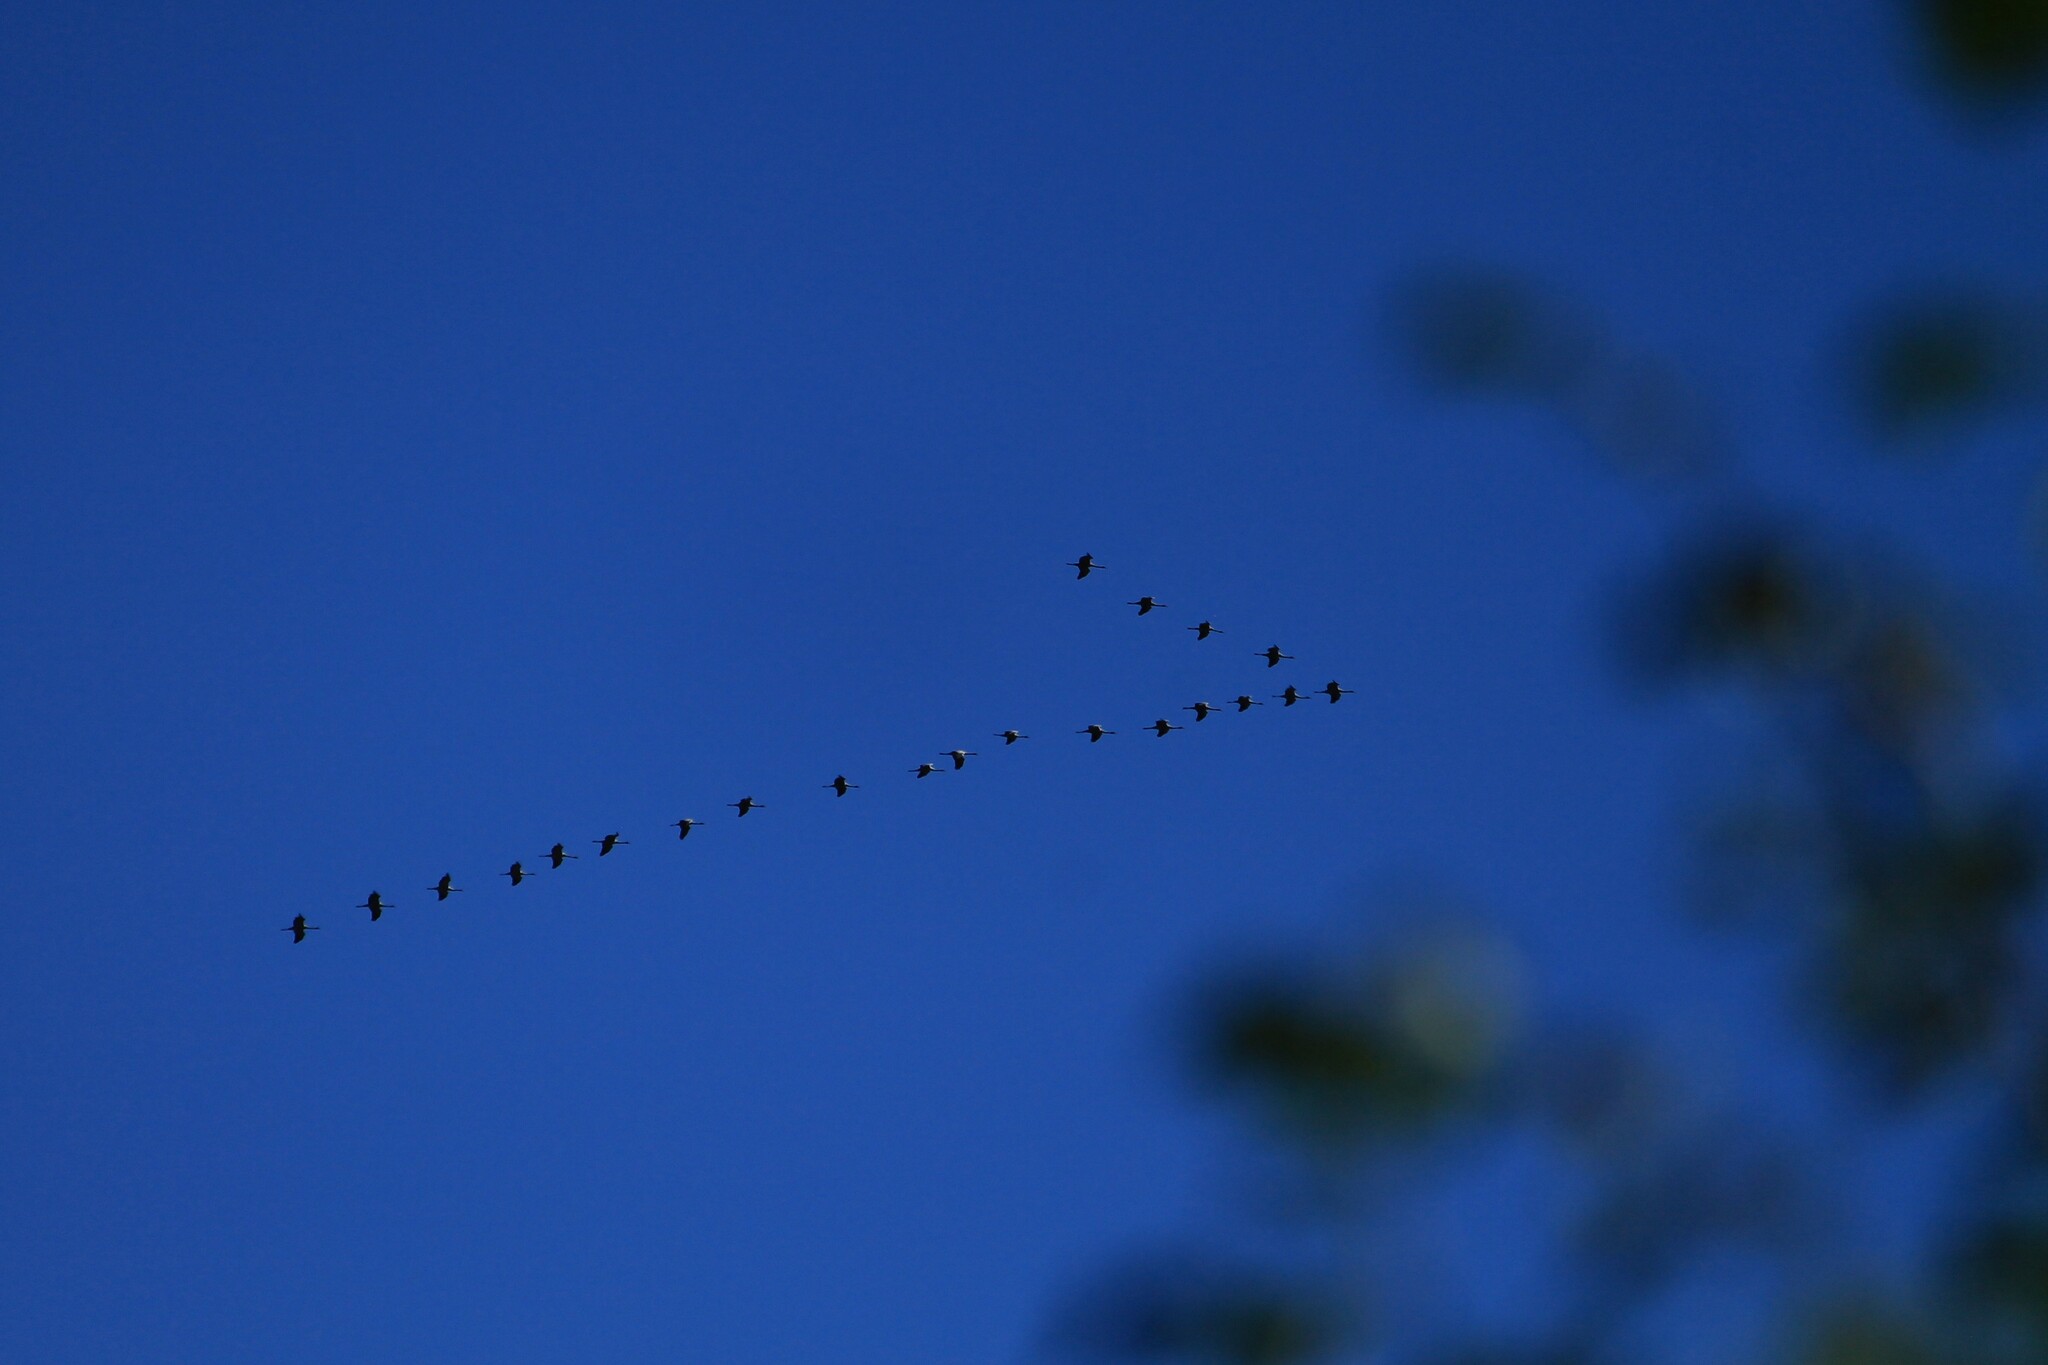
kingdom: Animalia
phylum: Chordata
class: Aves
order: Gruiformes
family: Gruidae
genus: Grus
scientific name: Grus grus
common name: Common crane
